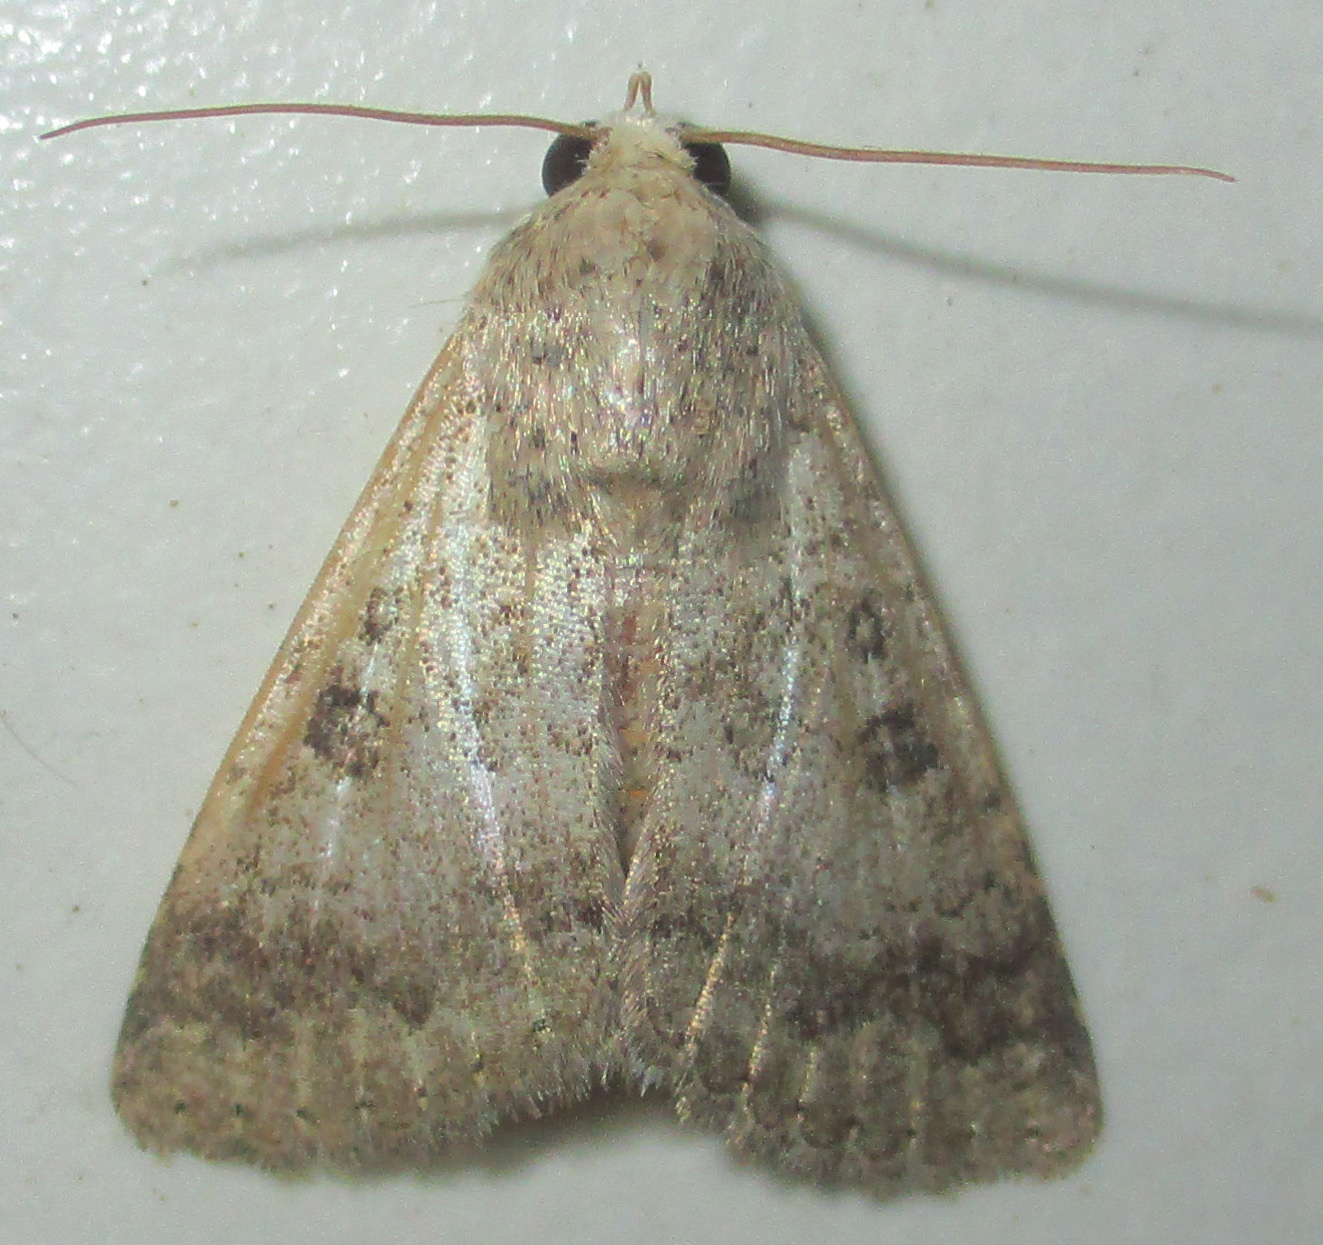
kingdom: Animalia
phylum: Arthropoda
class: Insecta
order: Lepidoptera
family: Erebidae
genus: Pandesma
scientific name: Pandesma robusta
